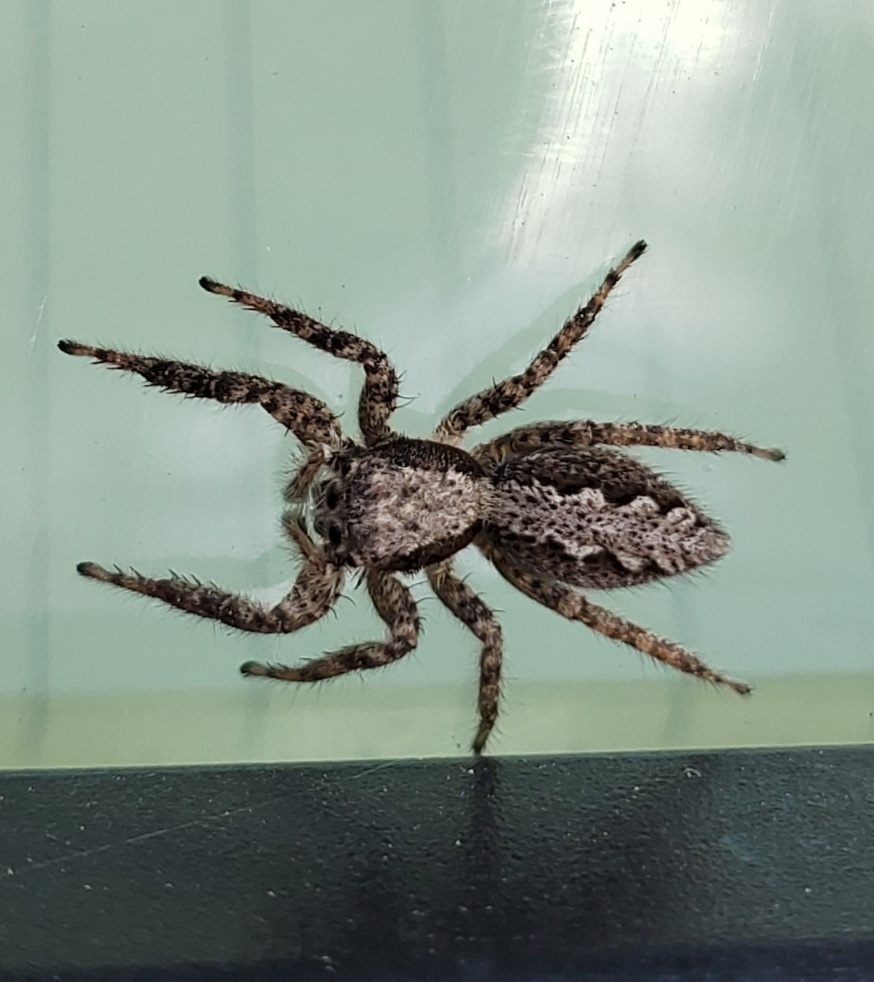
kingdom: Animalia
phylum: Arthropoda
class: Arachnida
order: Araneae
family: Salticidae
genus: Platycryptus
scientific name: Platycryptus californicus
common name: Jumping spiders
